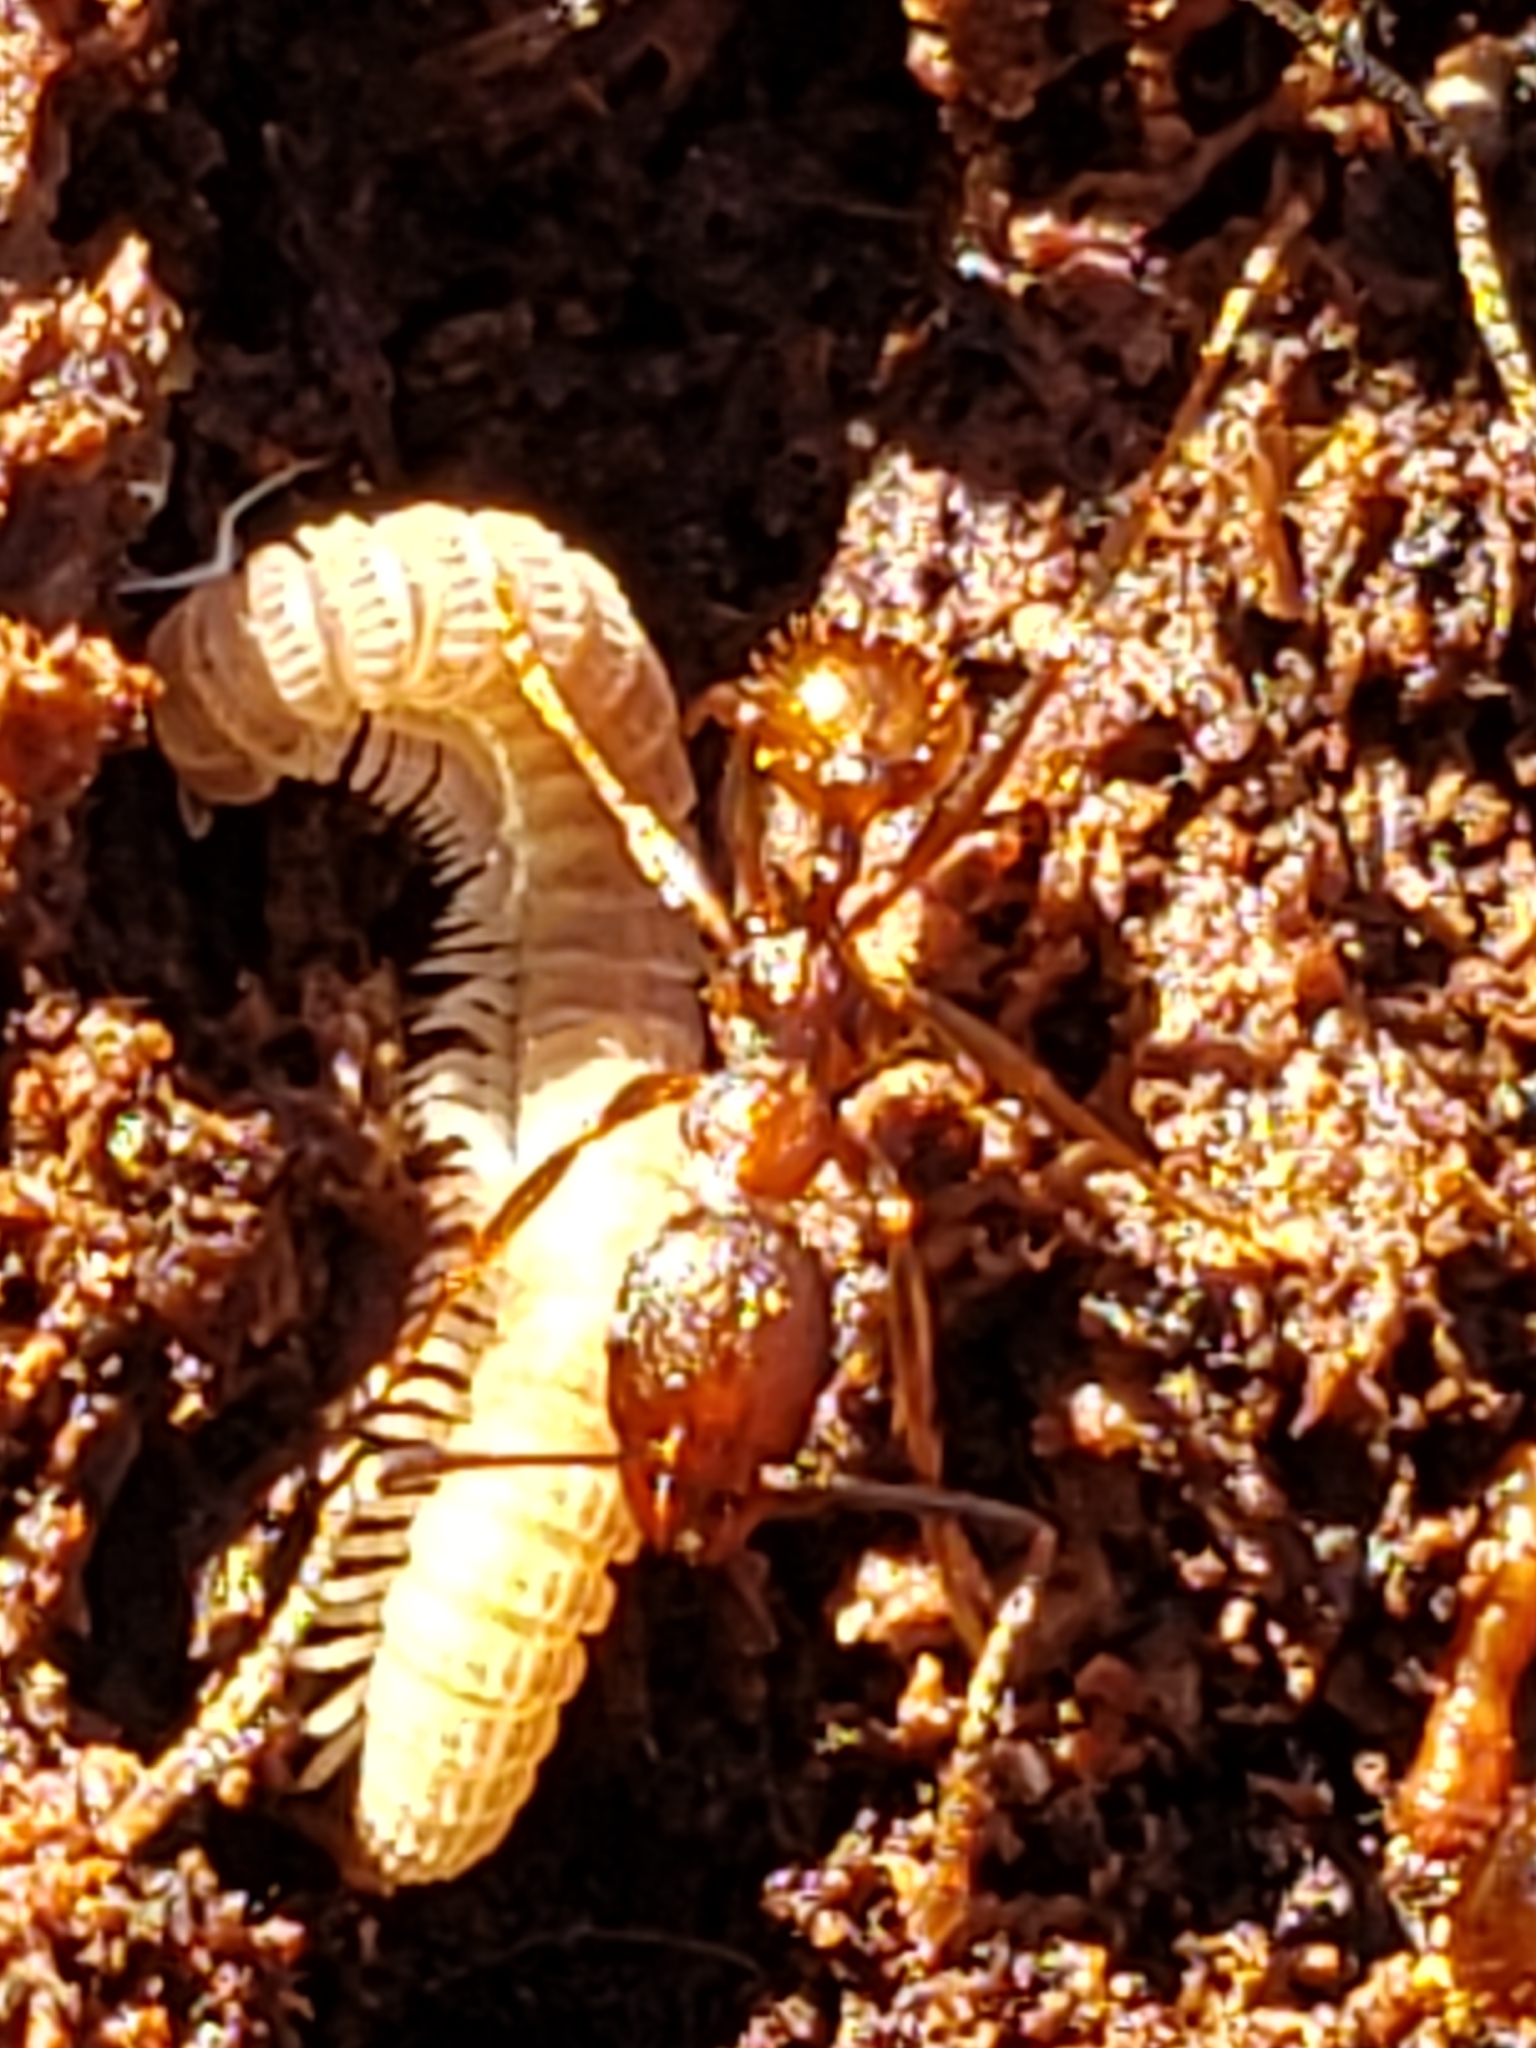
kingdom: Animalia
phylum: Arthropoda
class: Insecta
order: Hymenoptera
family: Formicidae
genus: Aphaenogaster
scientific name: Aphaenogaster fulva
